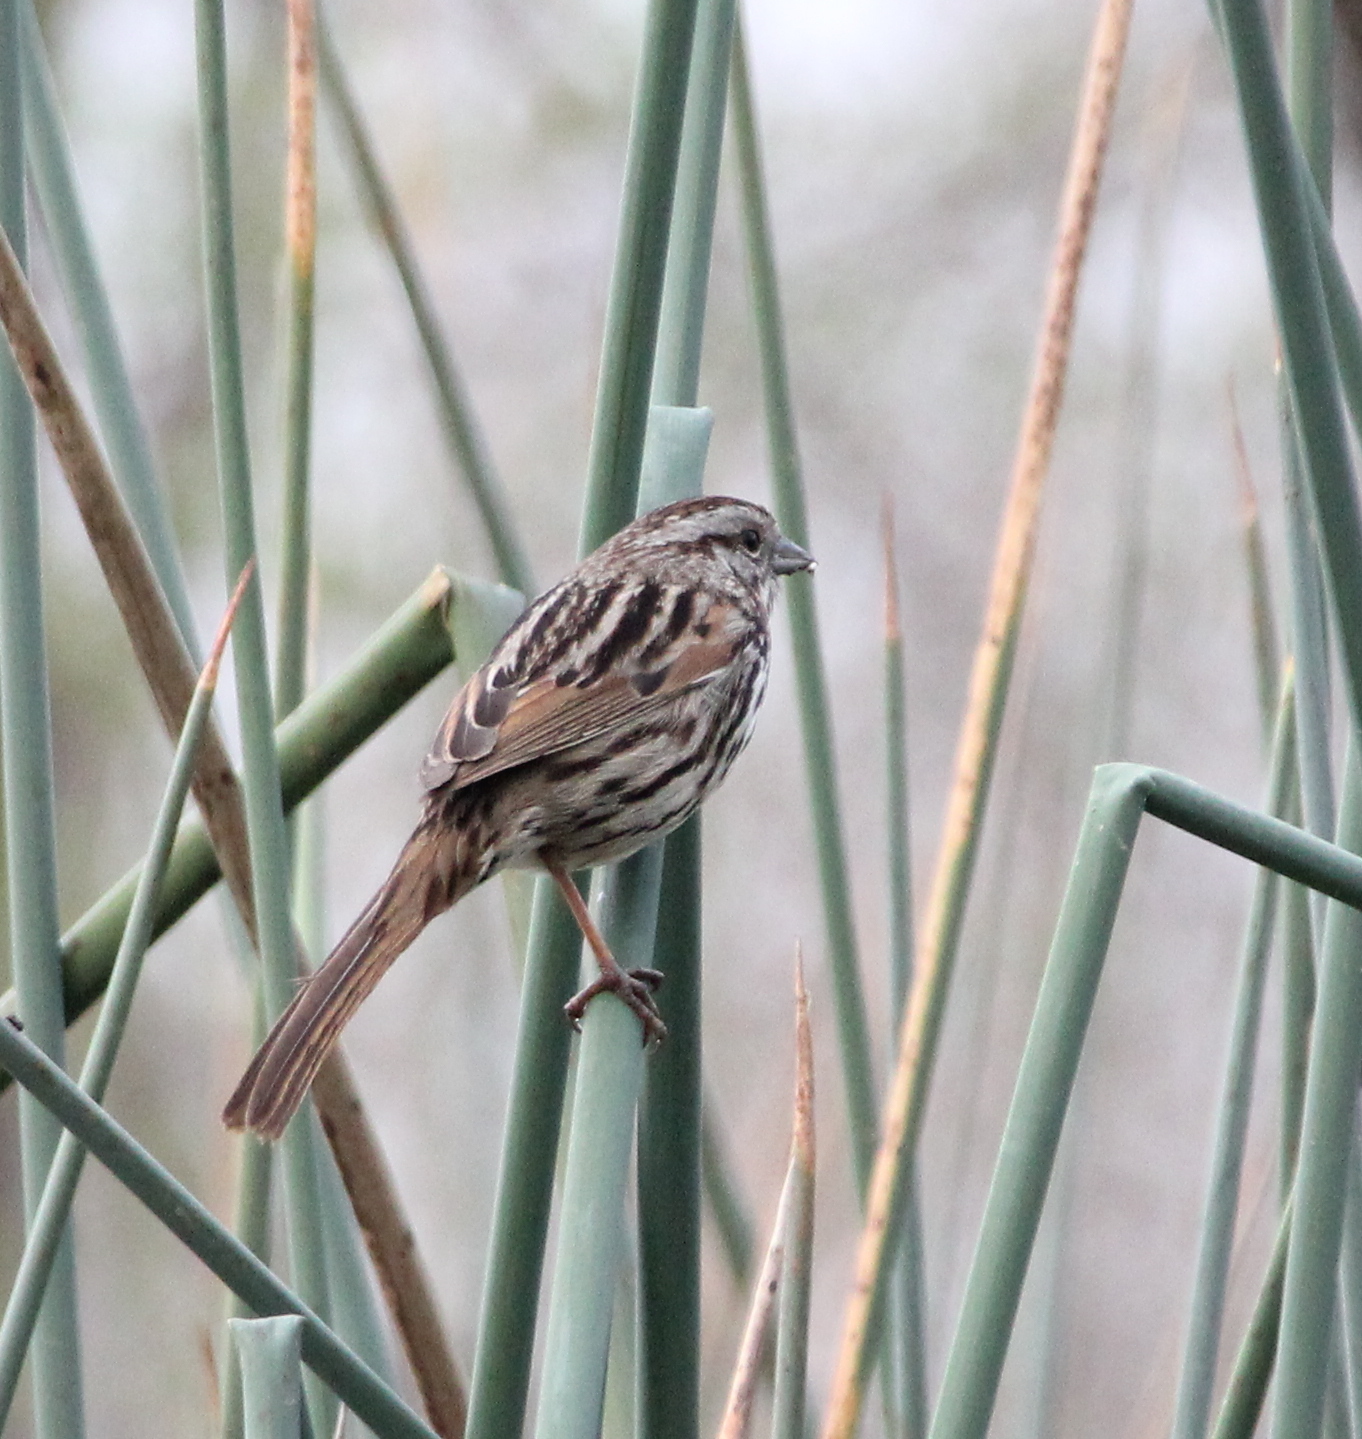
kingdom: Animalia
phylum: Chordata
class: Aves
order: Passeriformes
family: Passerellidae
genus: Melospiza
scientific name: Melospiza melodia
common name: Song sparrow
